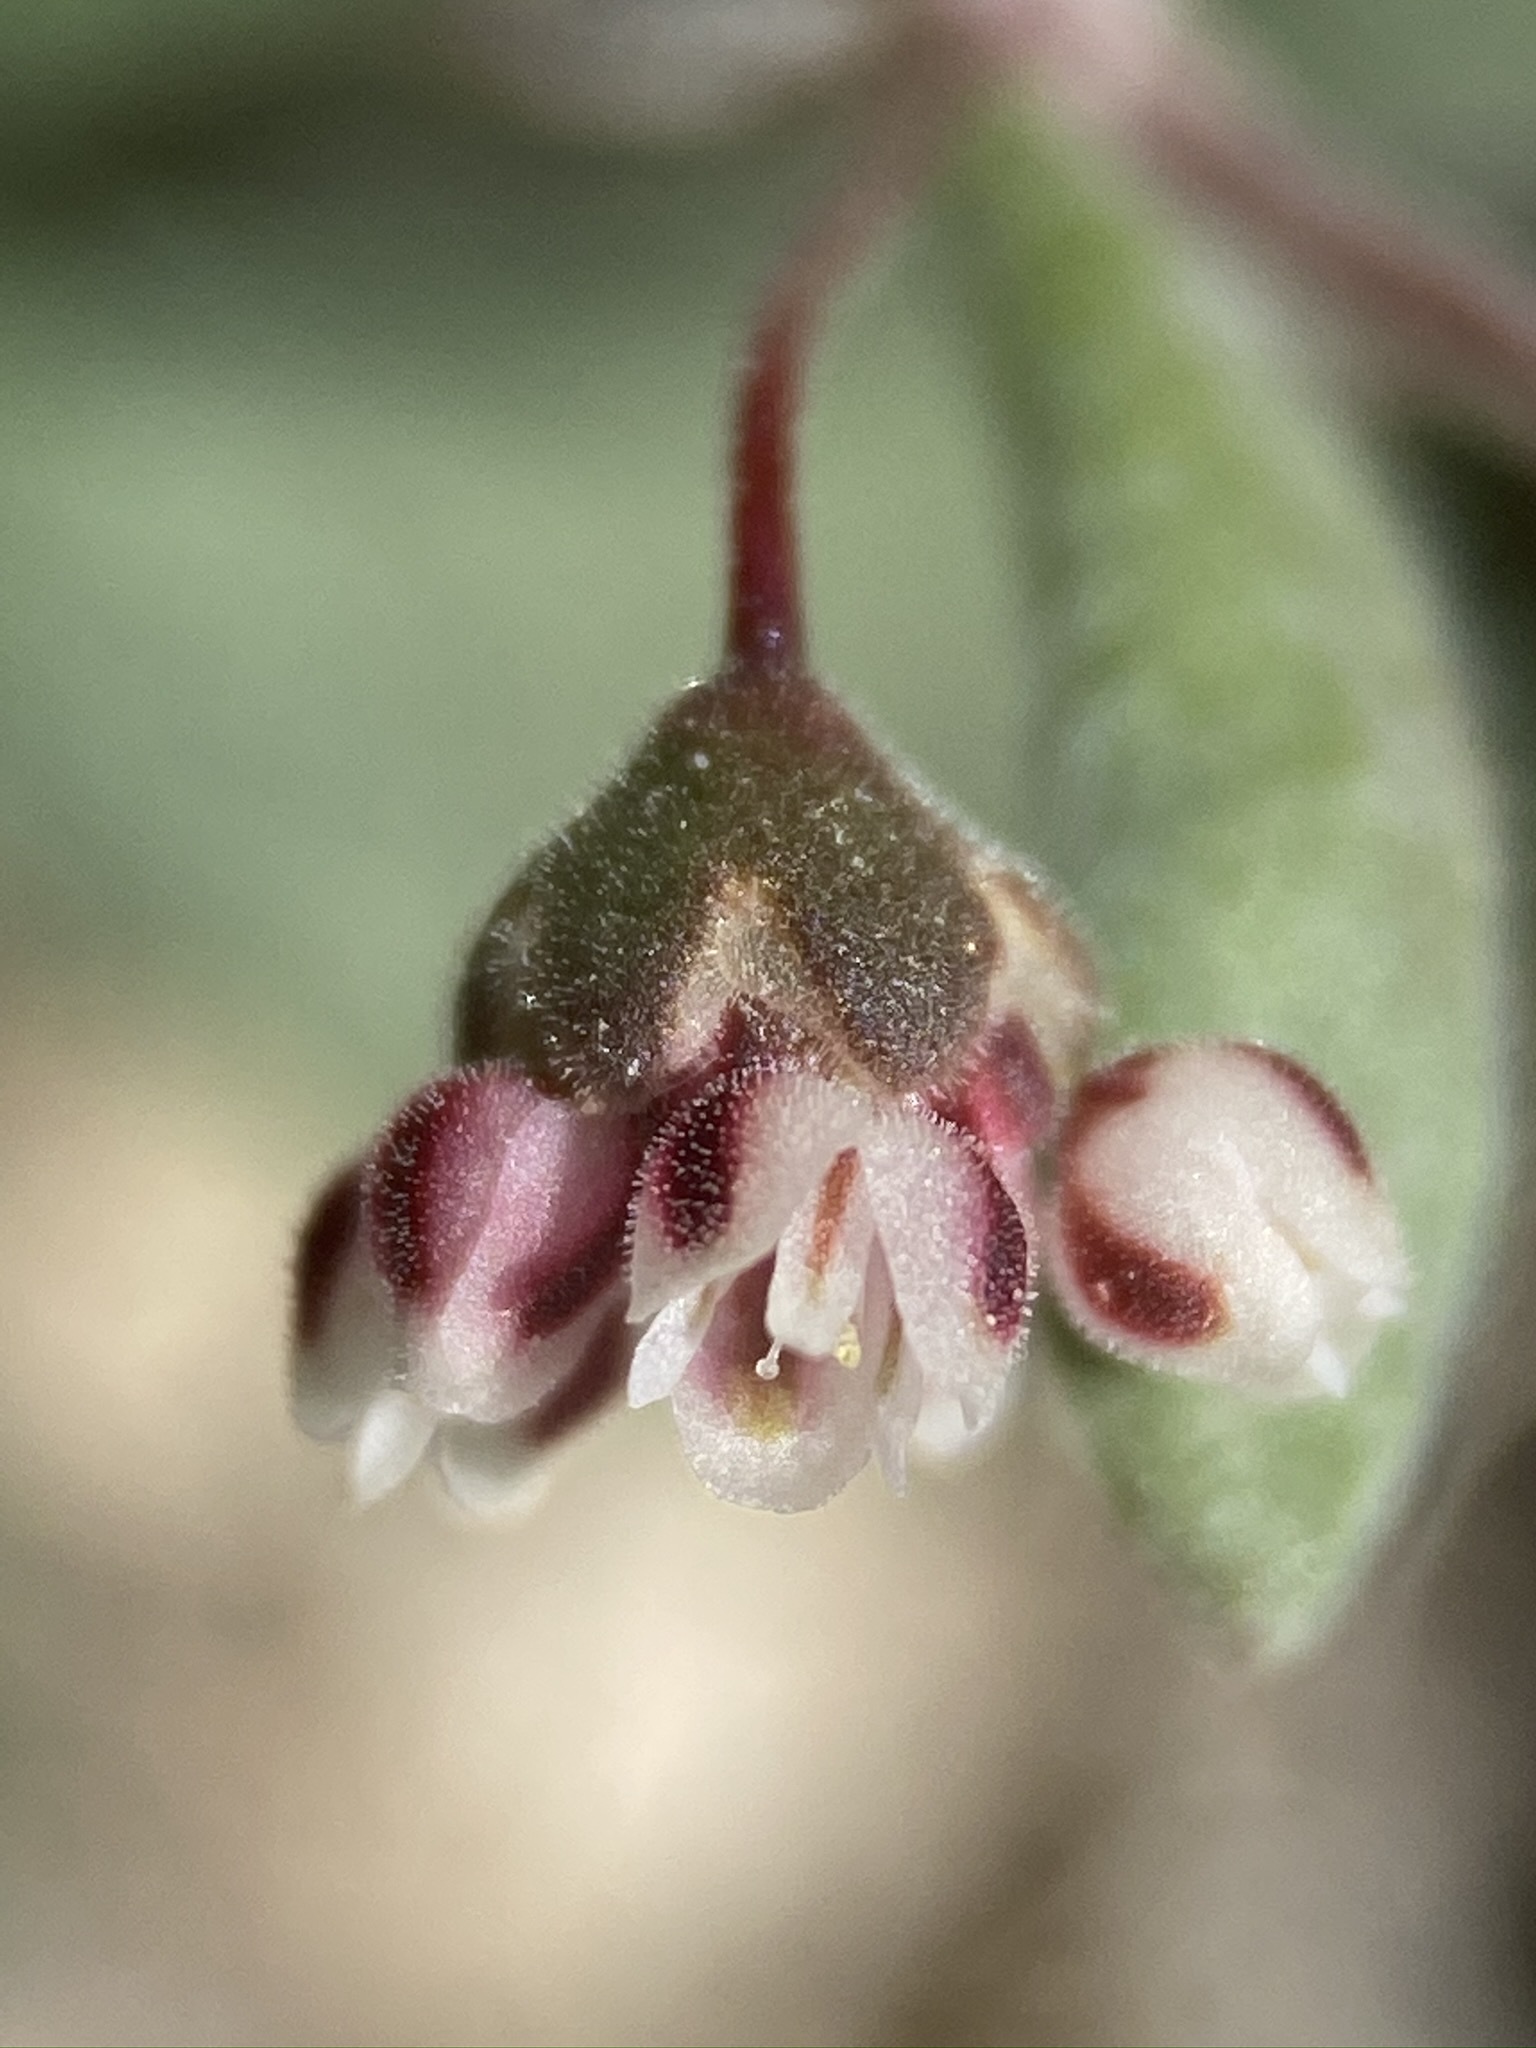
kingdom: Plantae
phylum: Tracheophyta
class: Magnoliopsida
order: Caryophyllales
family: Polygonaceae
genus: Eriogonum
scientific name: Eriogonum maculatum
